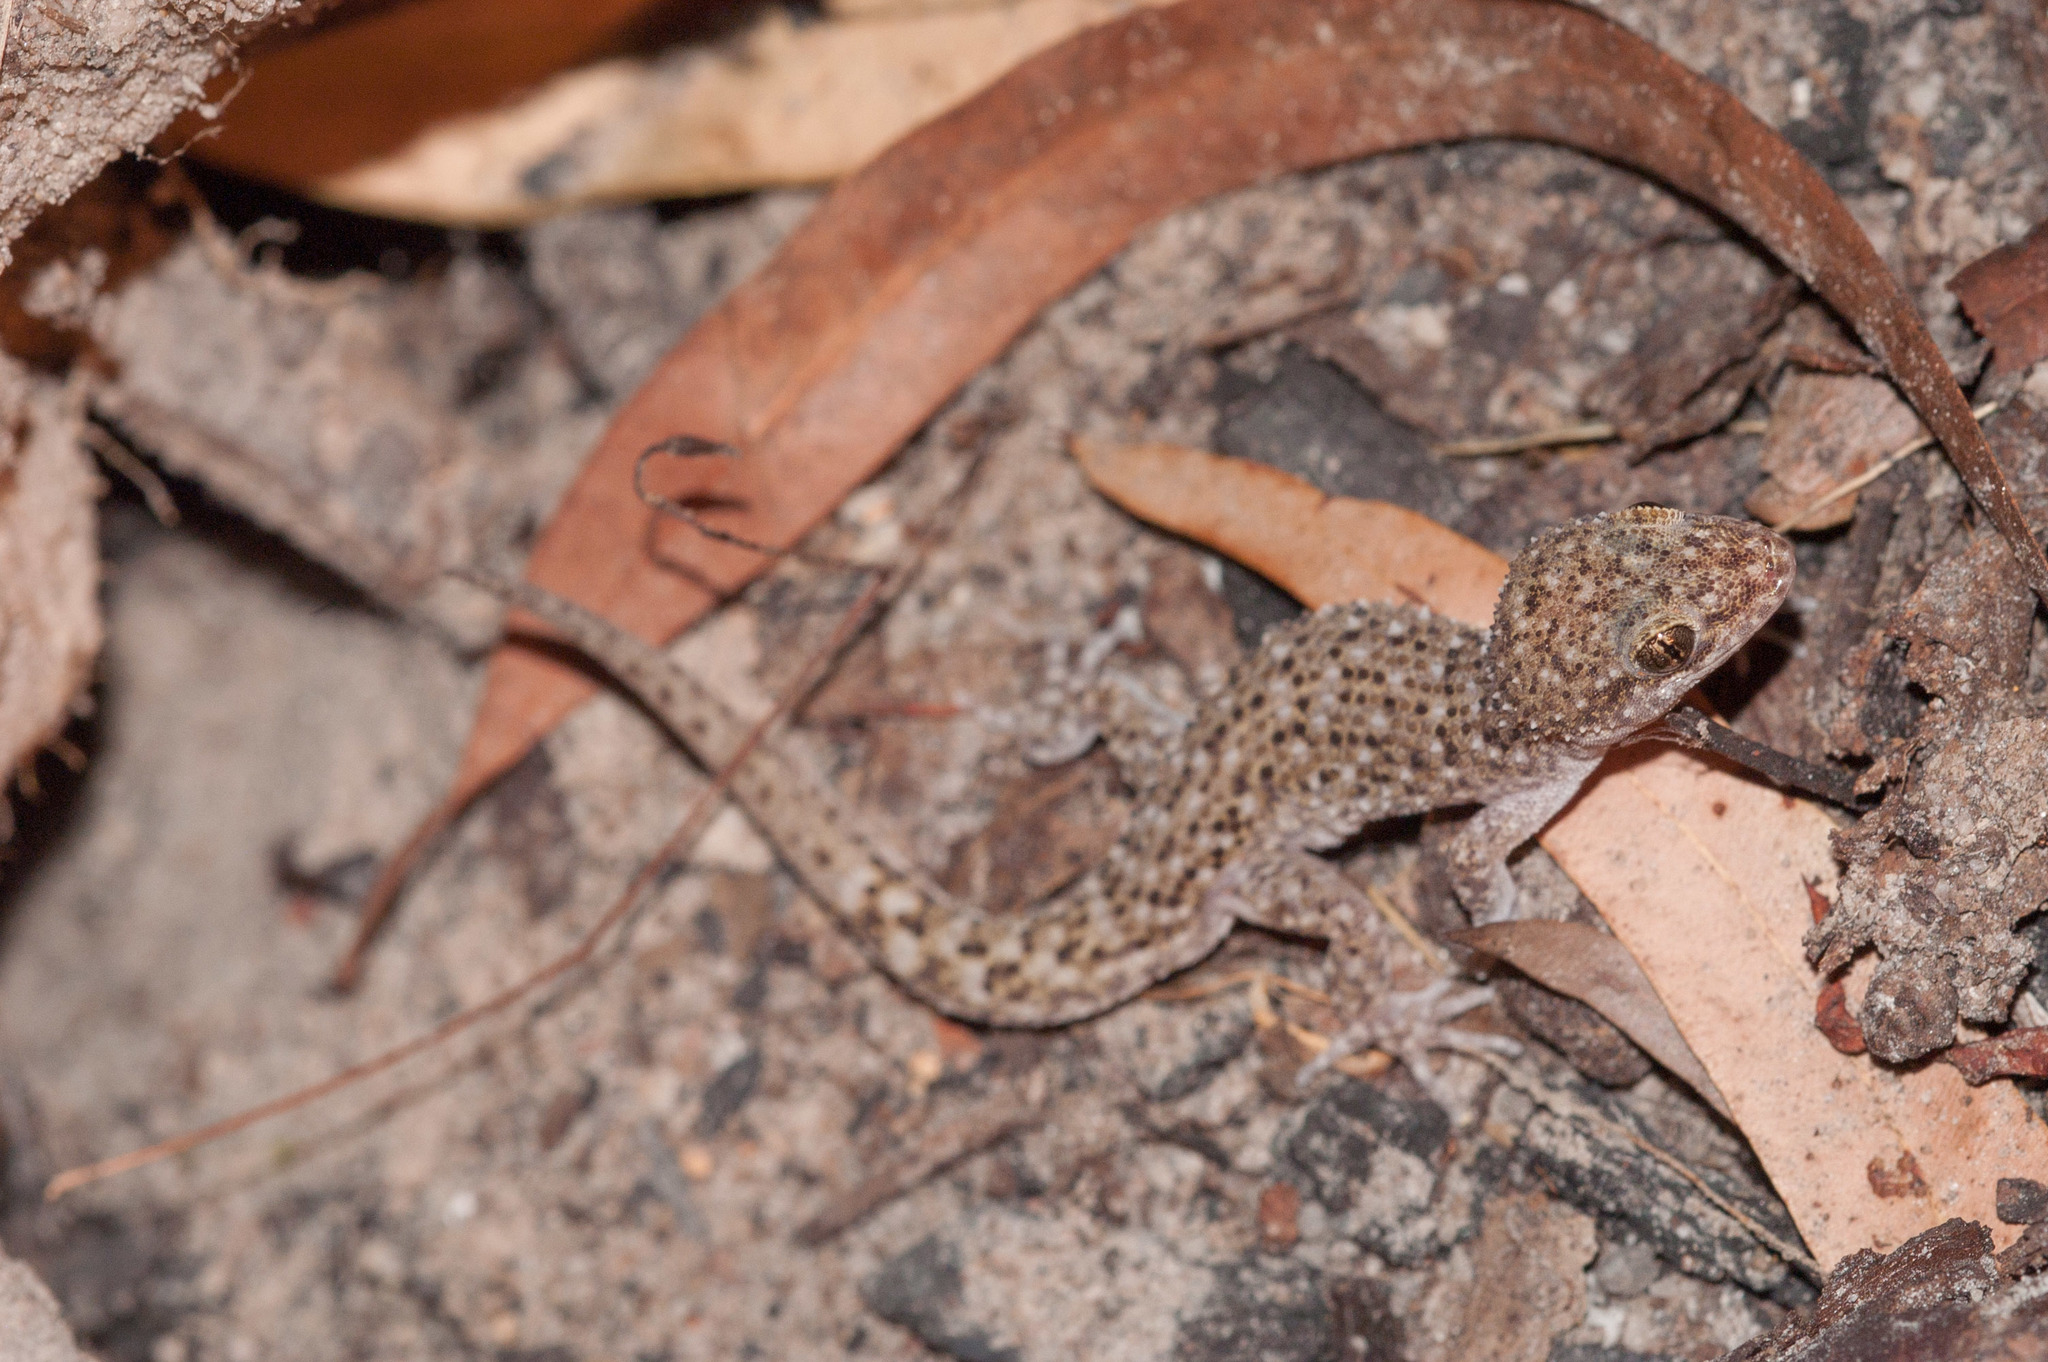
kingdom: Animalia
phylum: Chordata
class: Squamata
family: Gekkonidae
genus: Heteronotia
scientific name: Heteronotia binoei
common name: Bynoe's gecko
